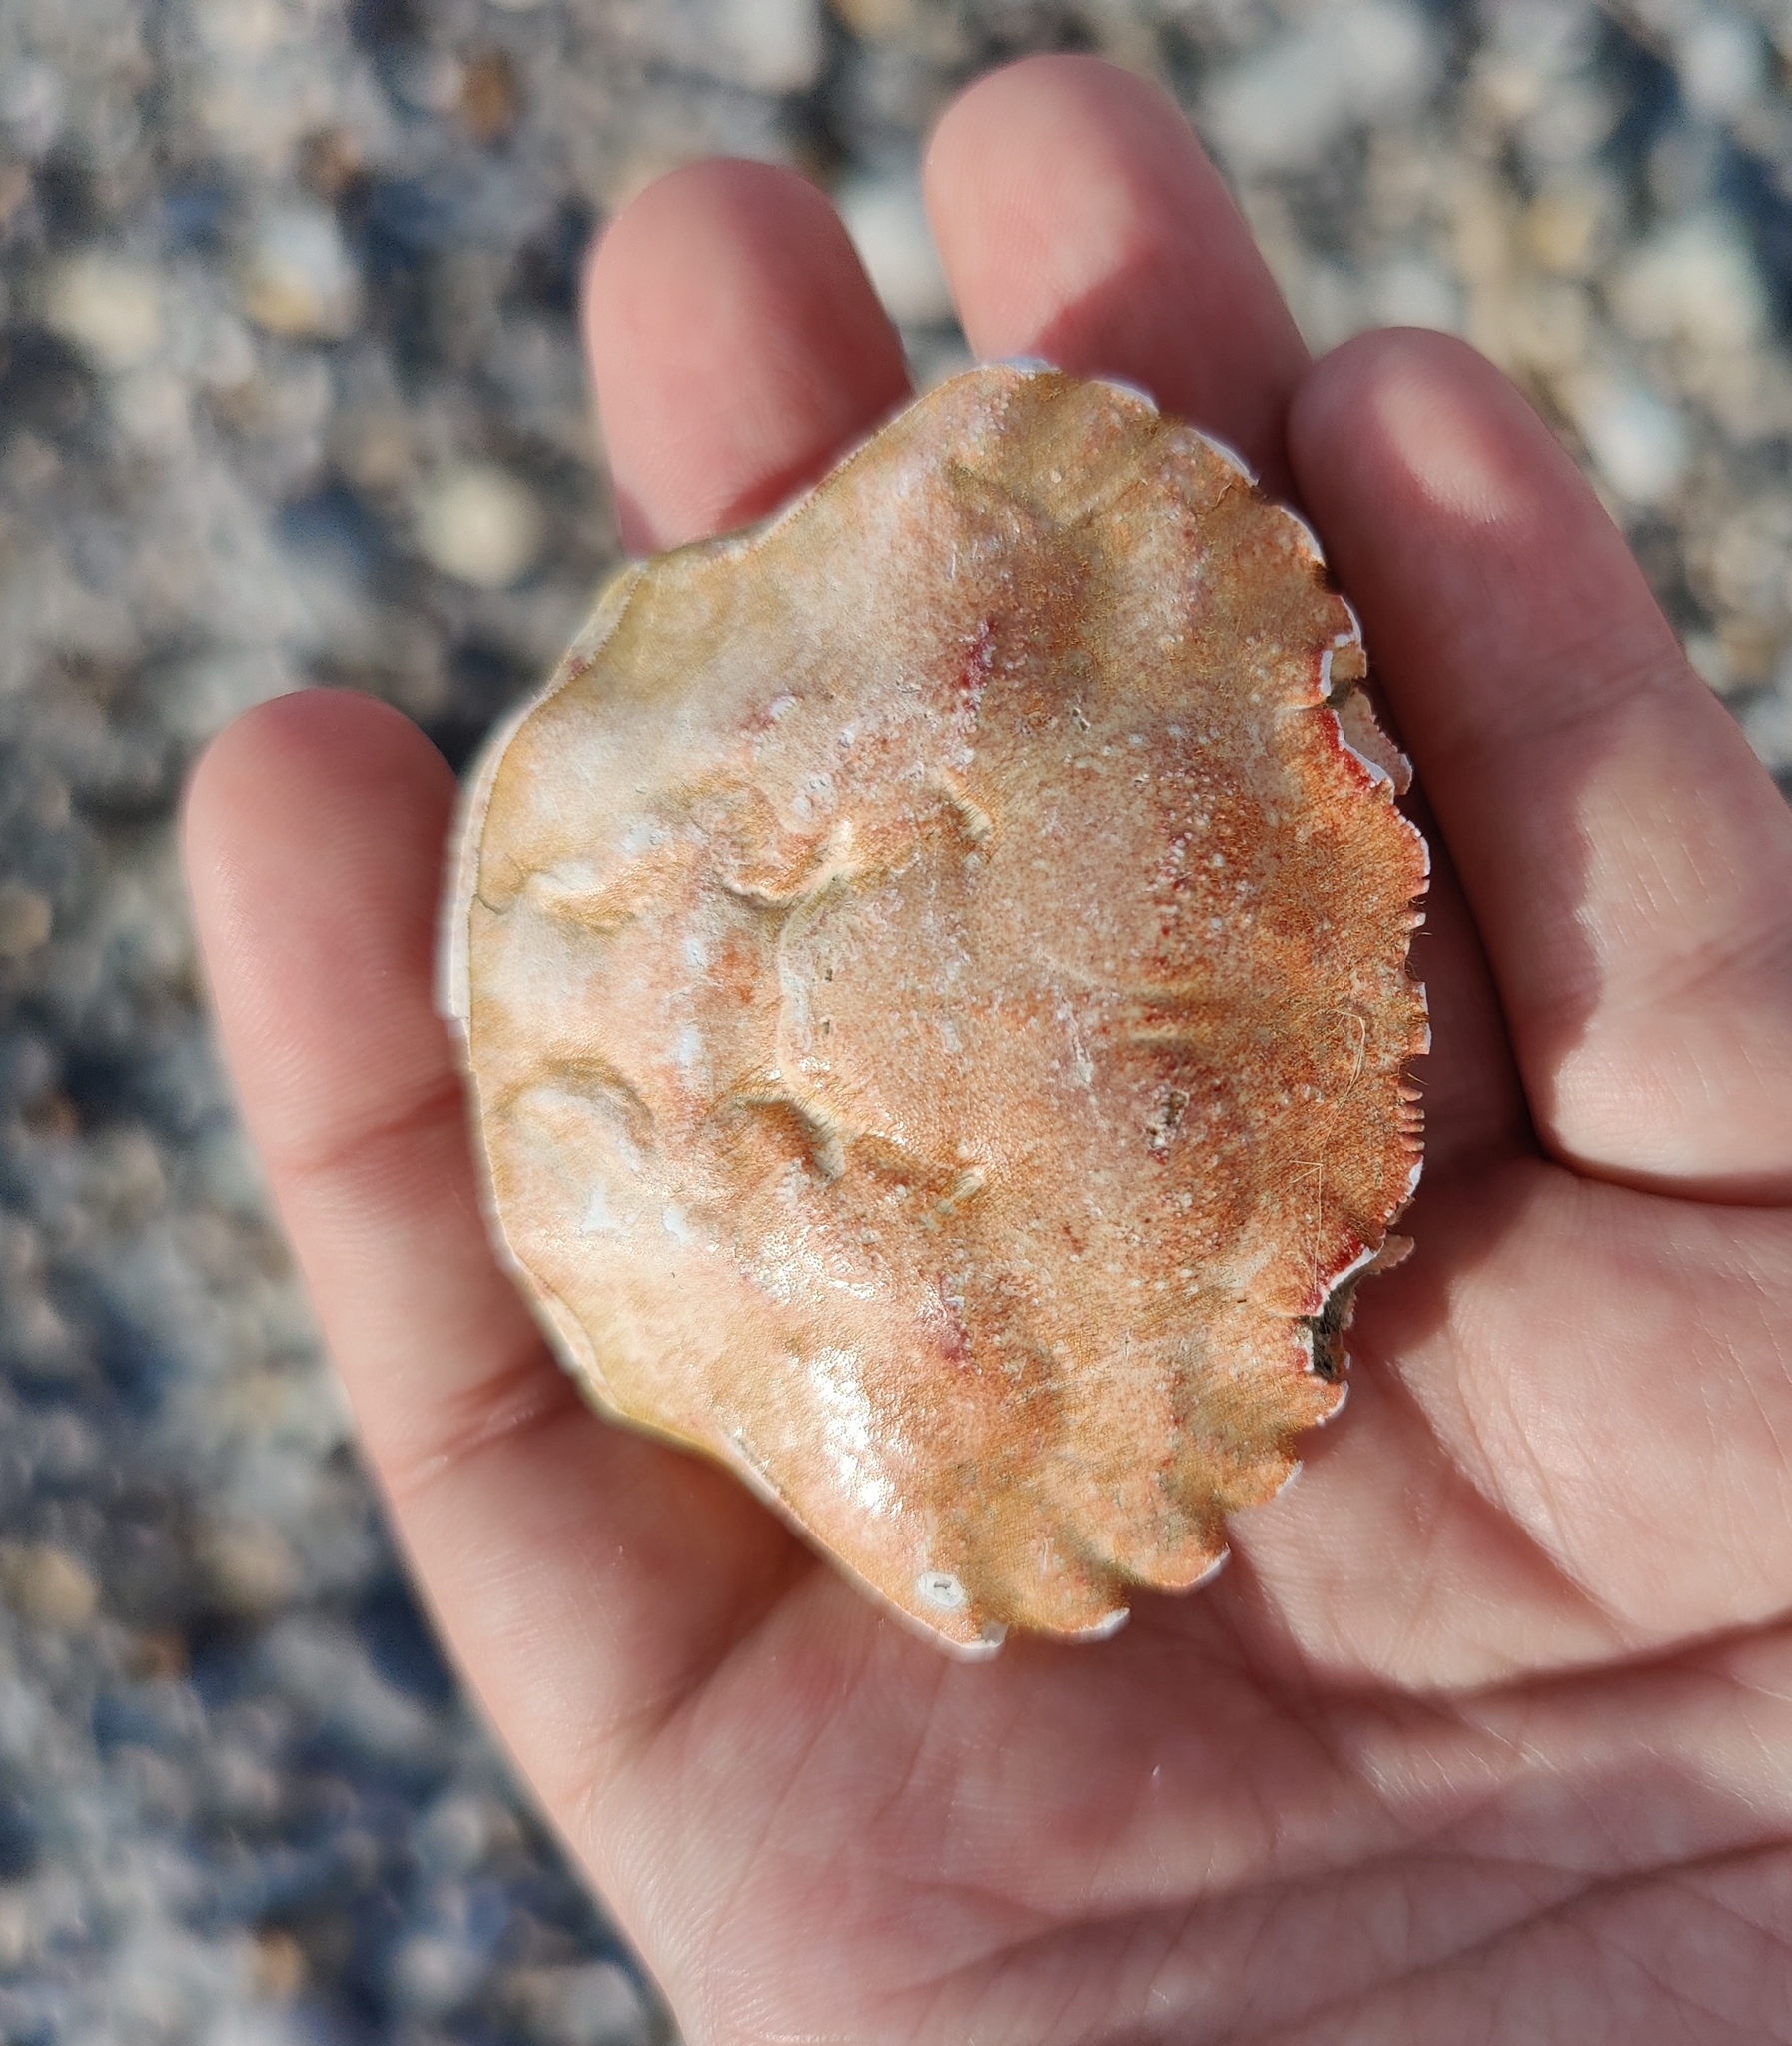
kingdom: Animalia
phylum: Arthropoda
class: Malacostraca
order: Decapoda
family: Polybiidae
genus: Necora
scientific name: Necora puber
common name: Velvet swimming crab
